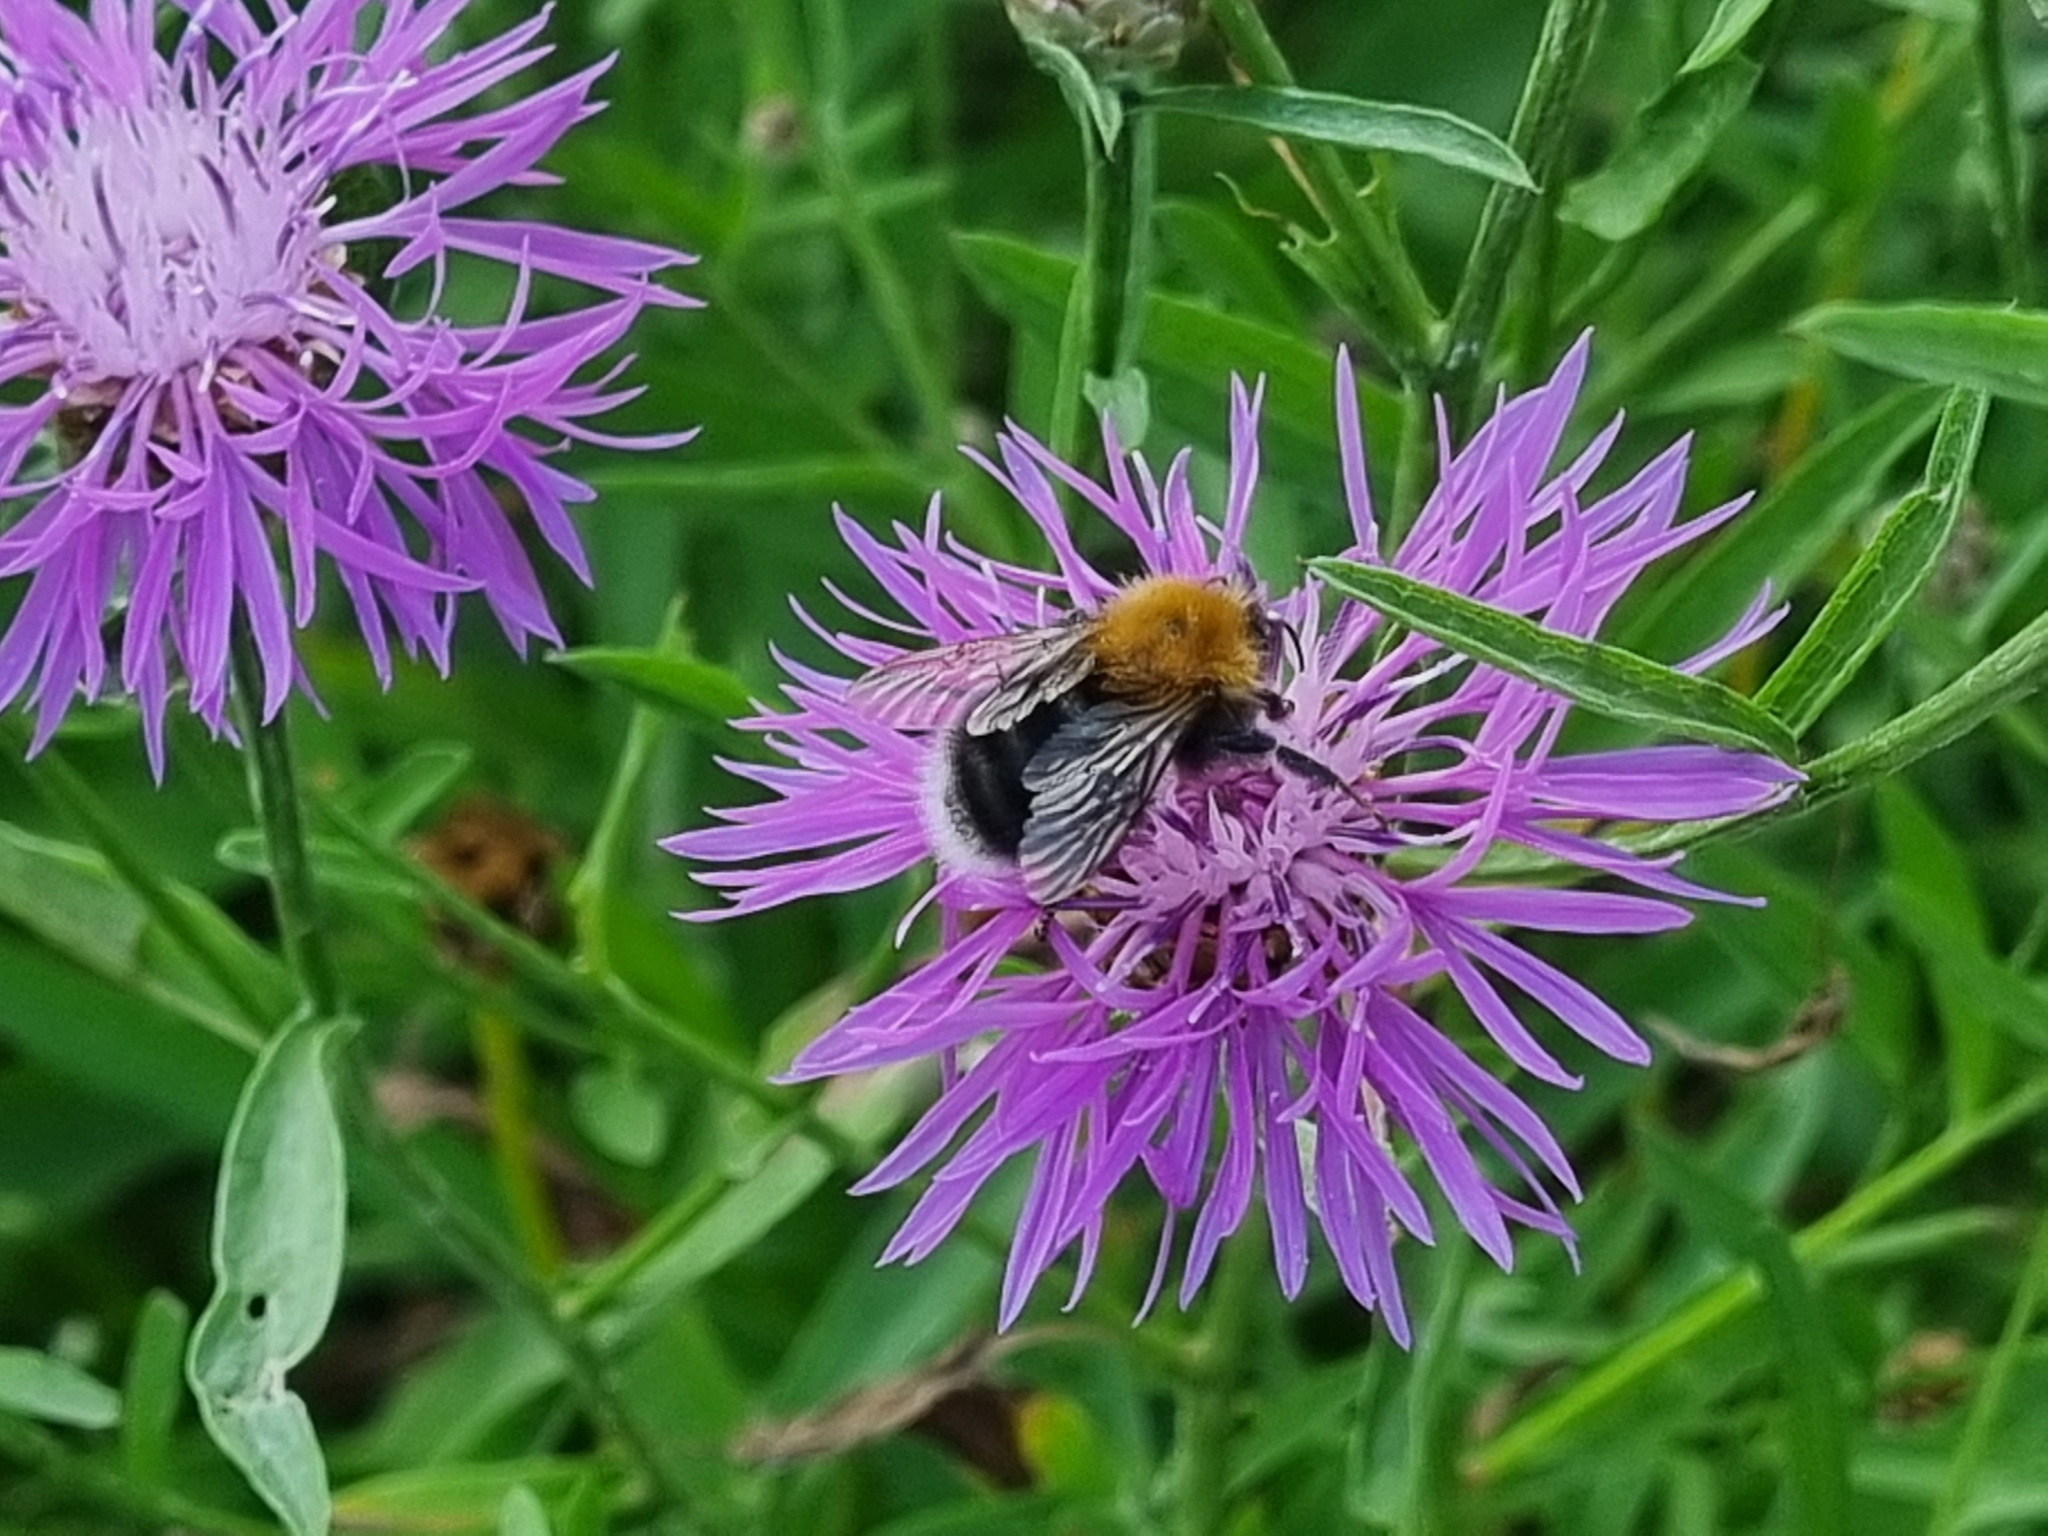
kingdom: Animalia
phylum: Arthropoda
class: Insecta
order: Hymenoptera
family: Apidae
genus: Bombus
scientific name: Bombus hypnorum
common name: New garden bumblebee
